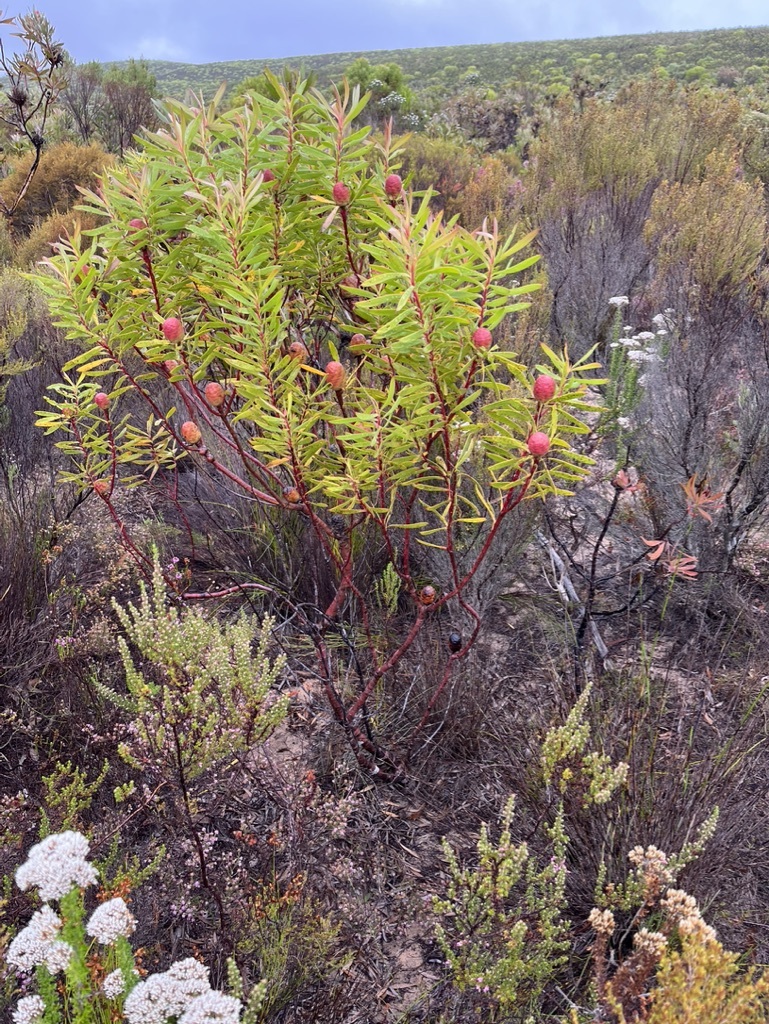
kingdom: Plantae
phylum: Tracheophyta
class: Magnoliopsida
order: Proteales
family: Proteaceae
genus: Leucadendron
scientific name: Leucadendron coniferum
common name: Dune conebush
